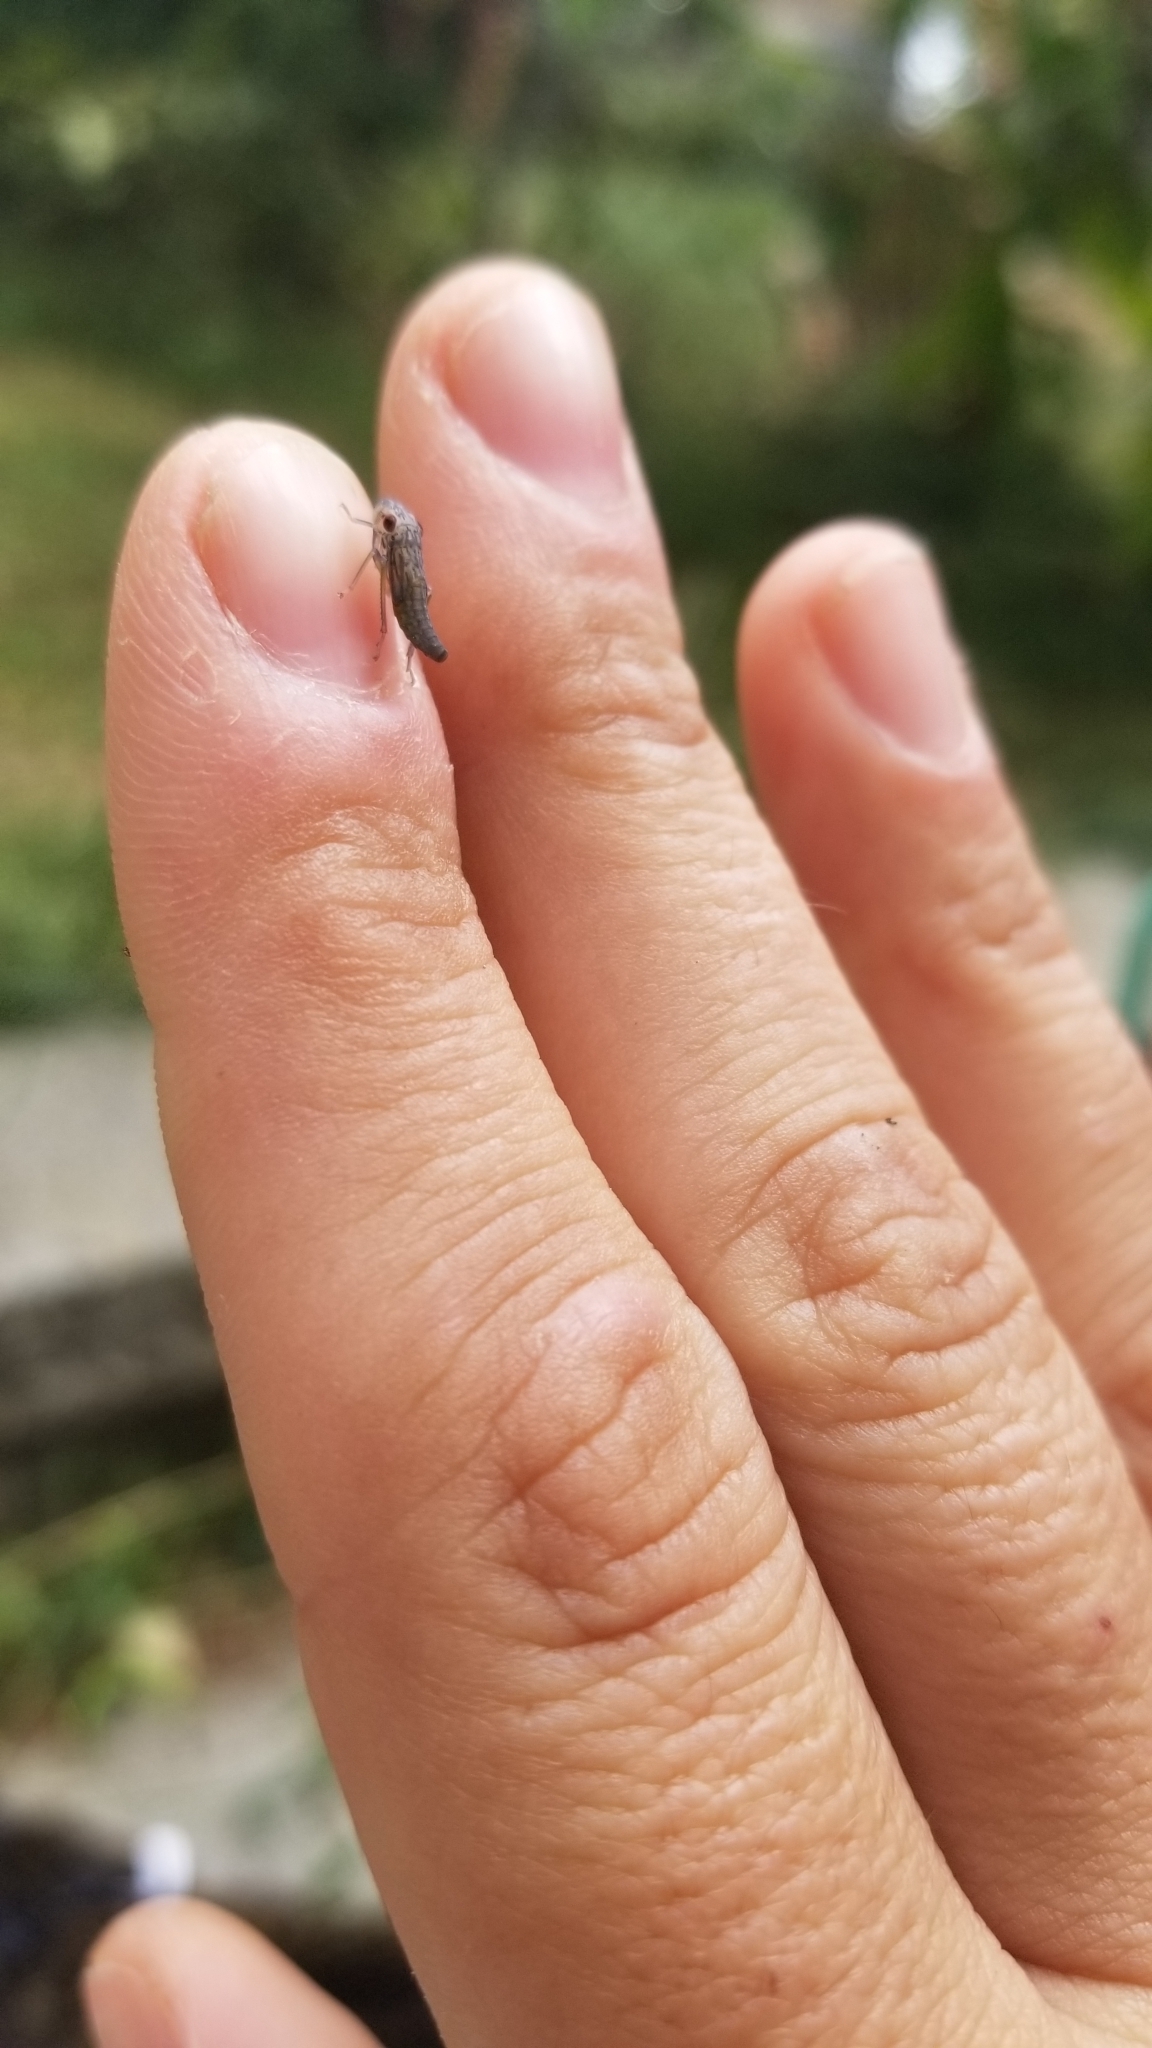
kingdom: Animalia
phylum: Arthropoda
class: Insecta
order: Hemiptera
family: Cicadellidae
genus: Oncometopia
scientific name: Oncometopia orbona
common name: Broad-headed sharpshooter
